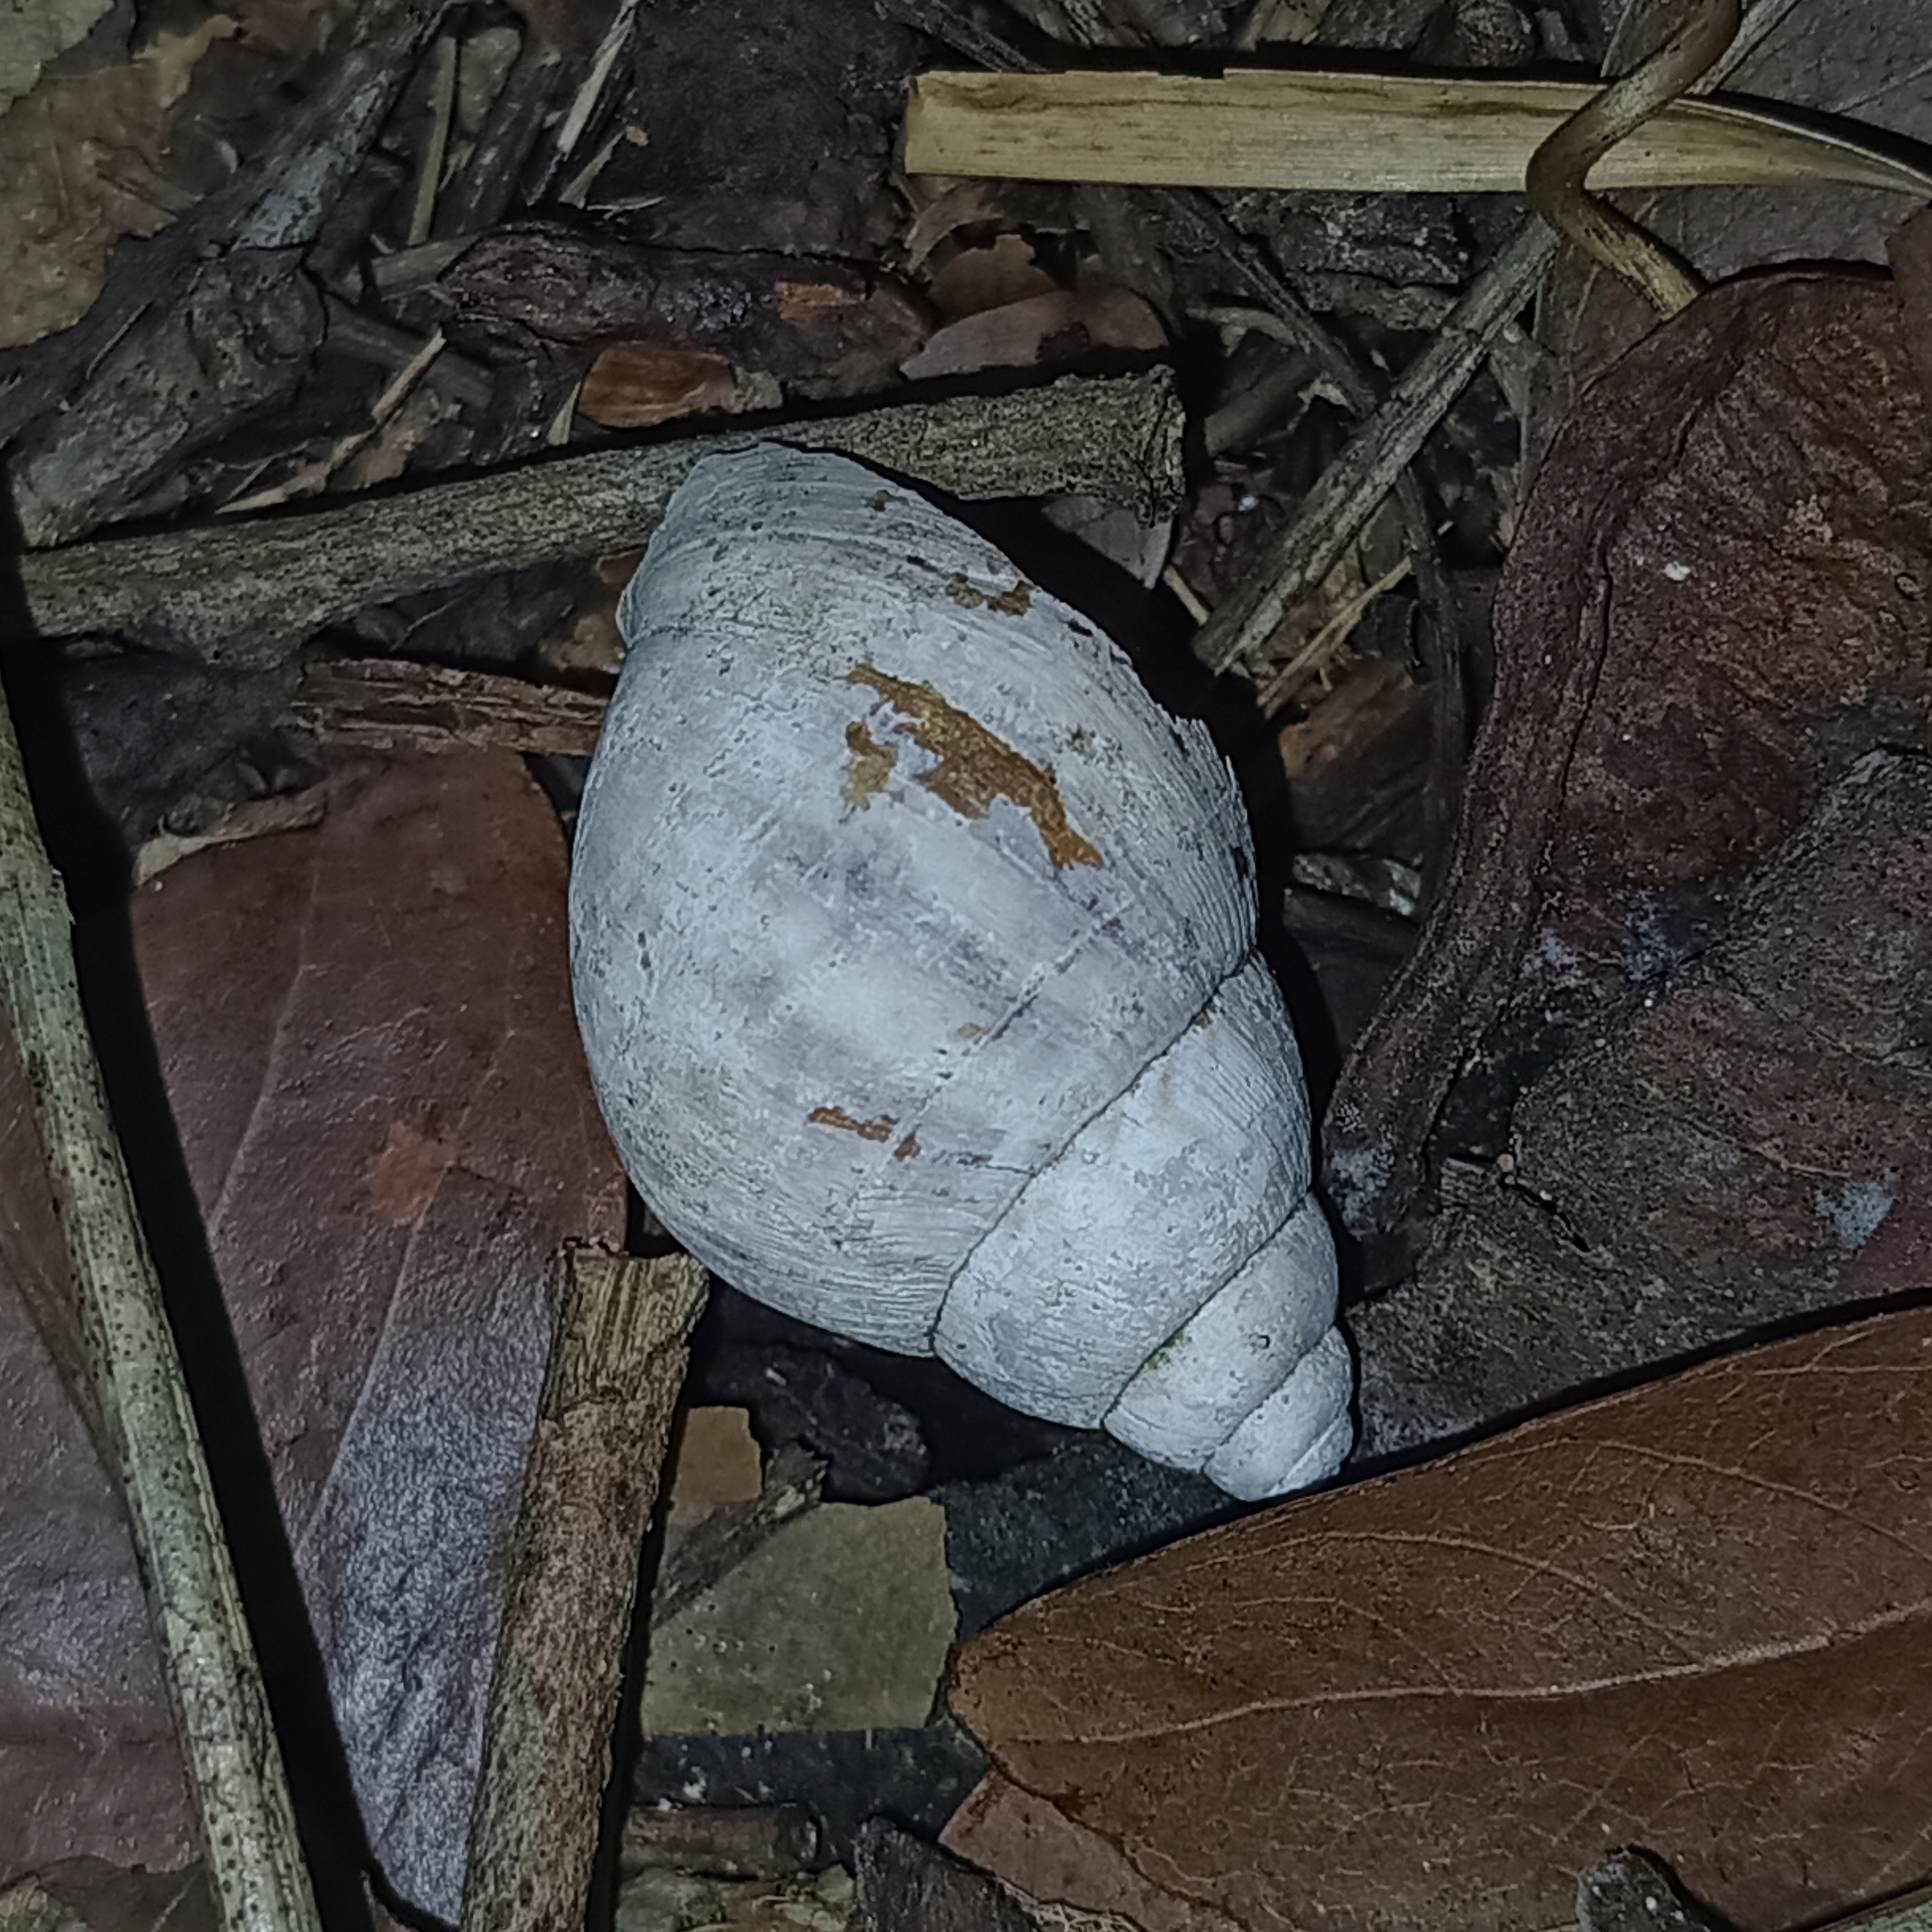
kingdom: Animalia
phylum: Mollusca
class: Gastropoda
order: Stylommatophora
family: Achatinidae
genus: Lissachatina
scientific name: Lissachatina fulica
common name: Giant african snail
